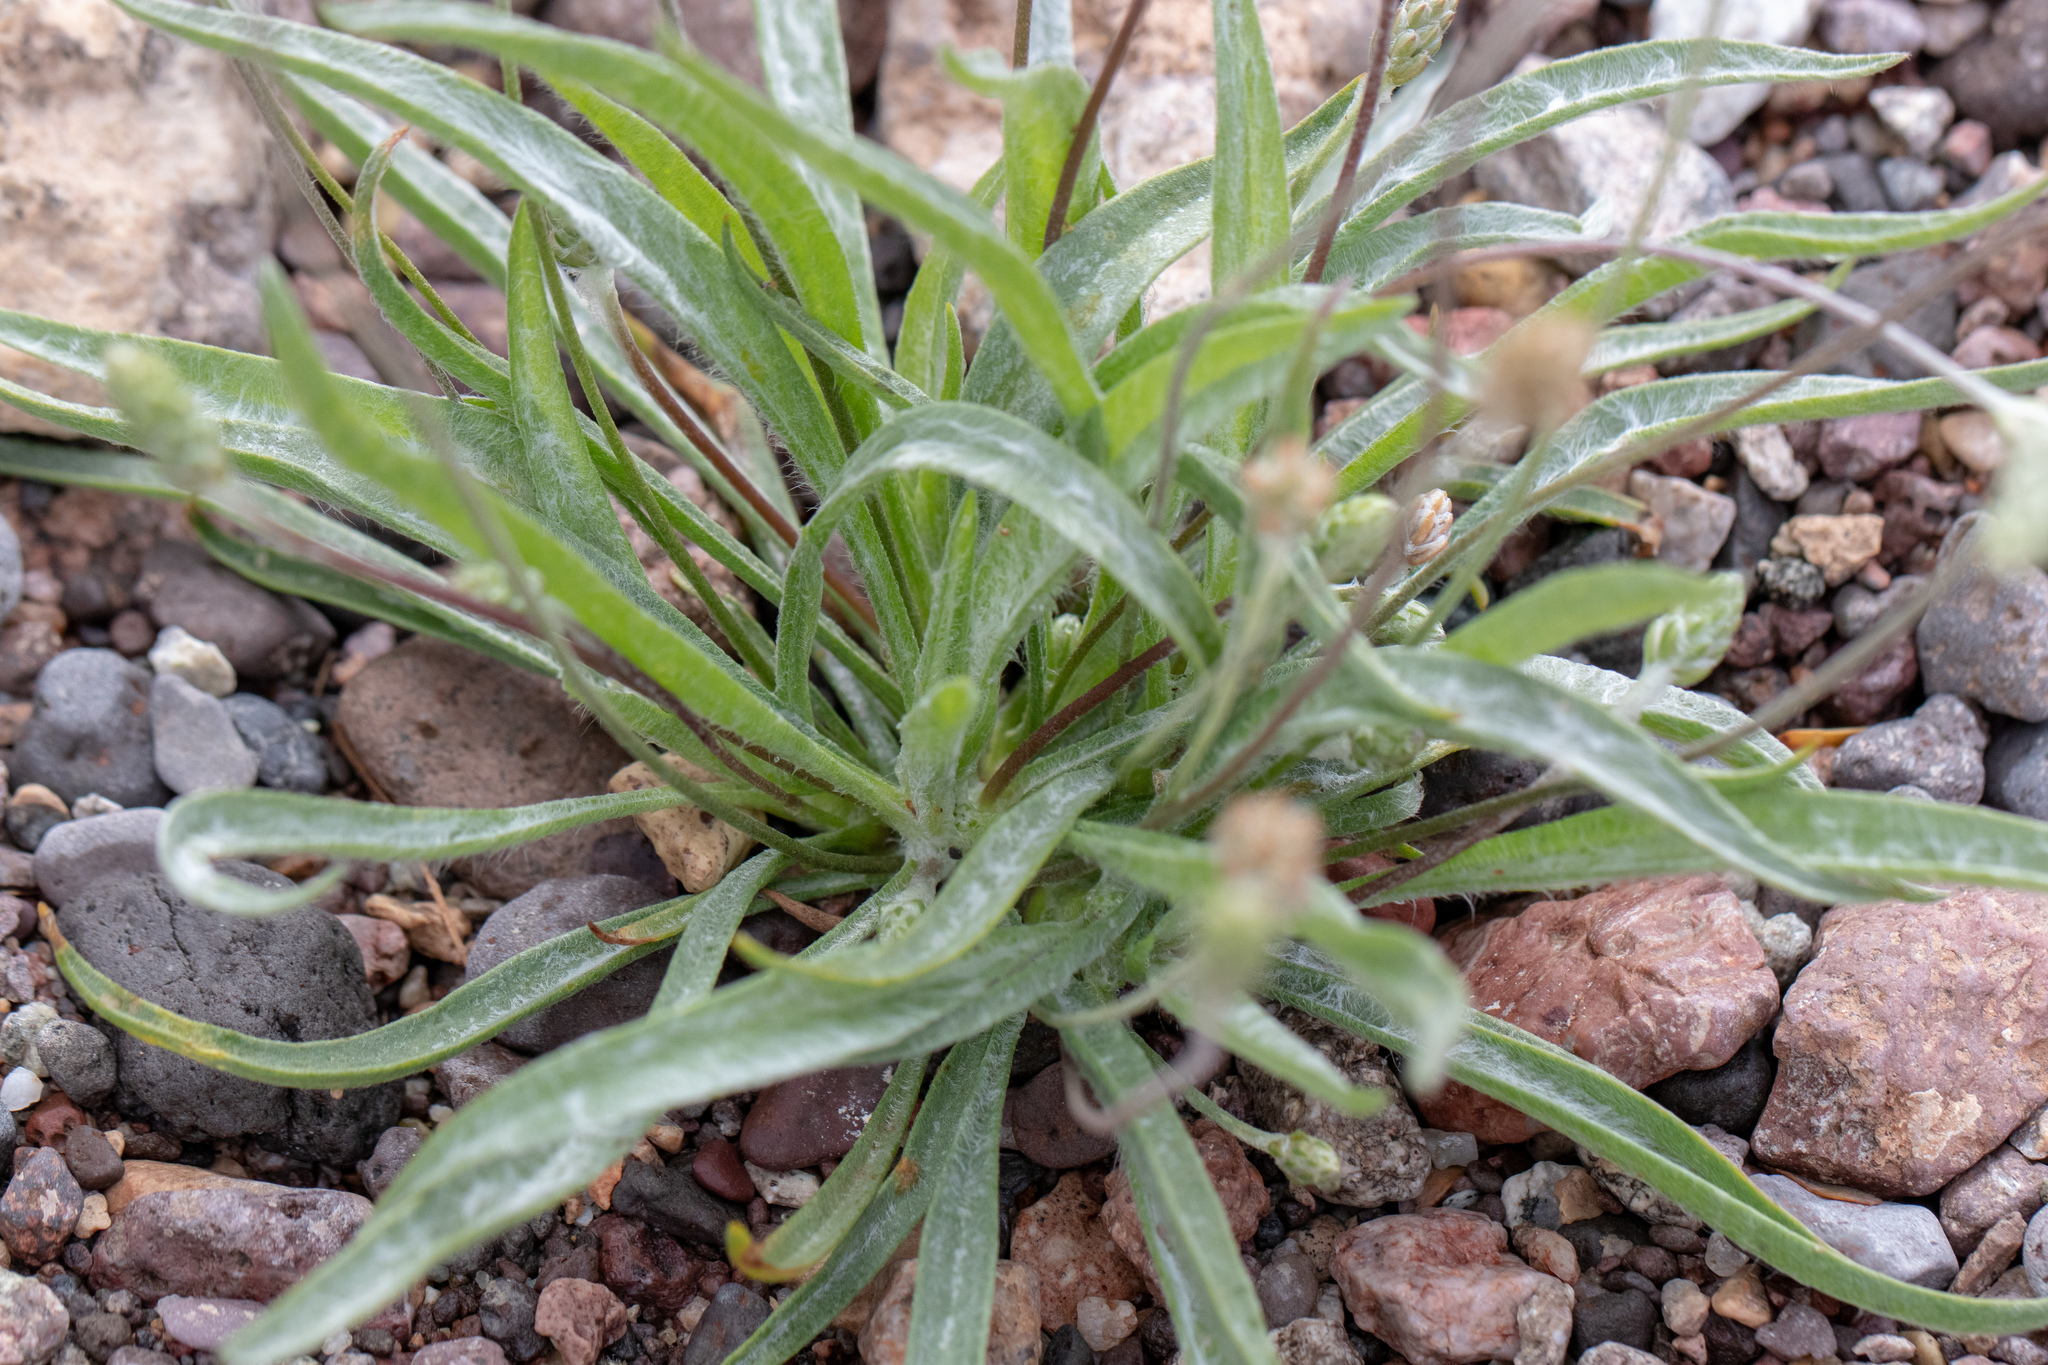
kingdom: Plantae
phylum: Tracheophyta
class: Magnoliopsida
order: Lamiales
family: Plantaginaceae
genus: Plantago
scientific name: Plantago patagonica
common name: Patagonia indian-wheat
